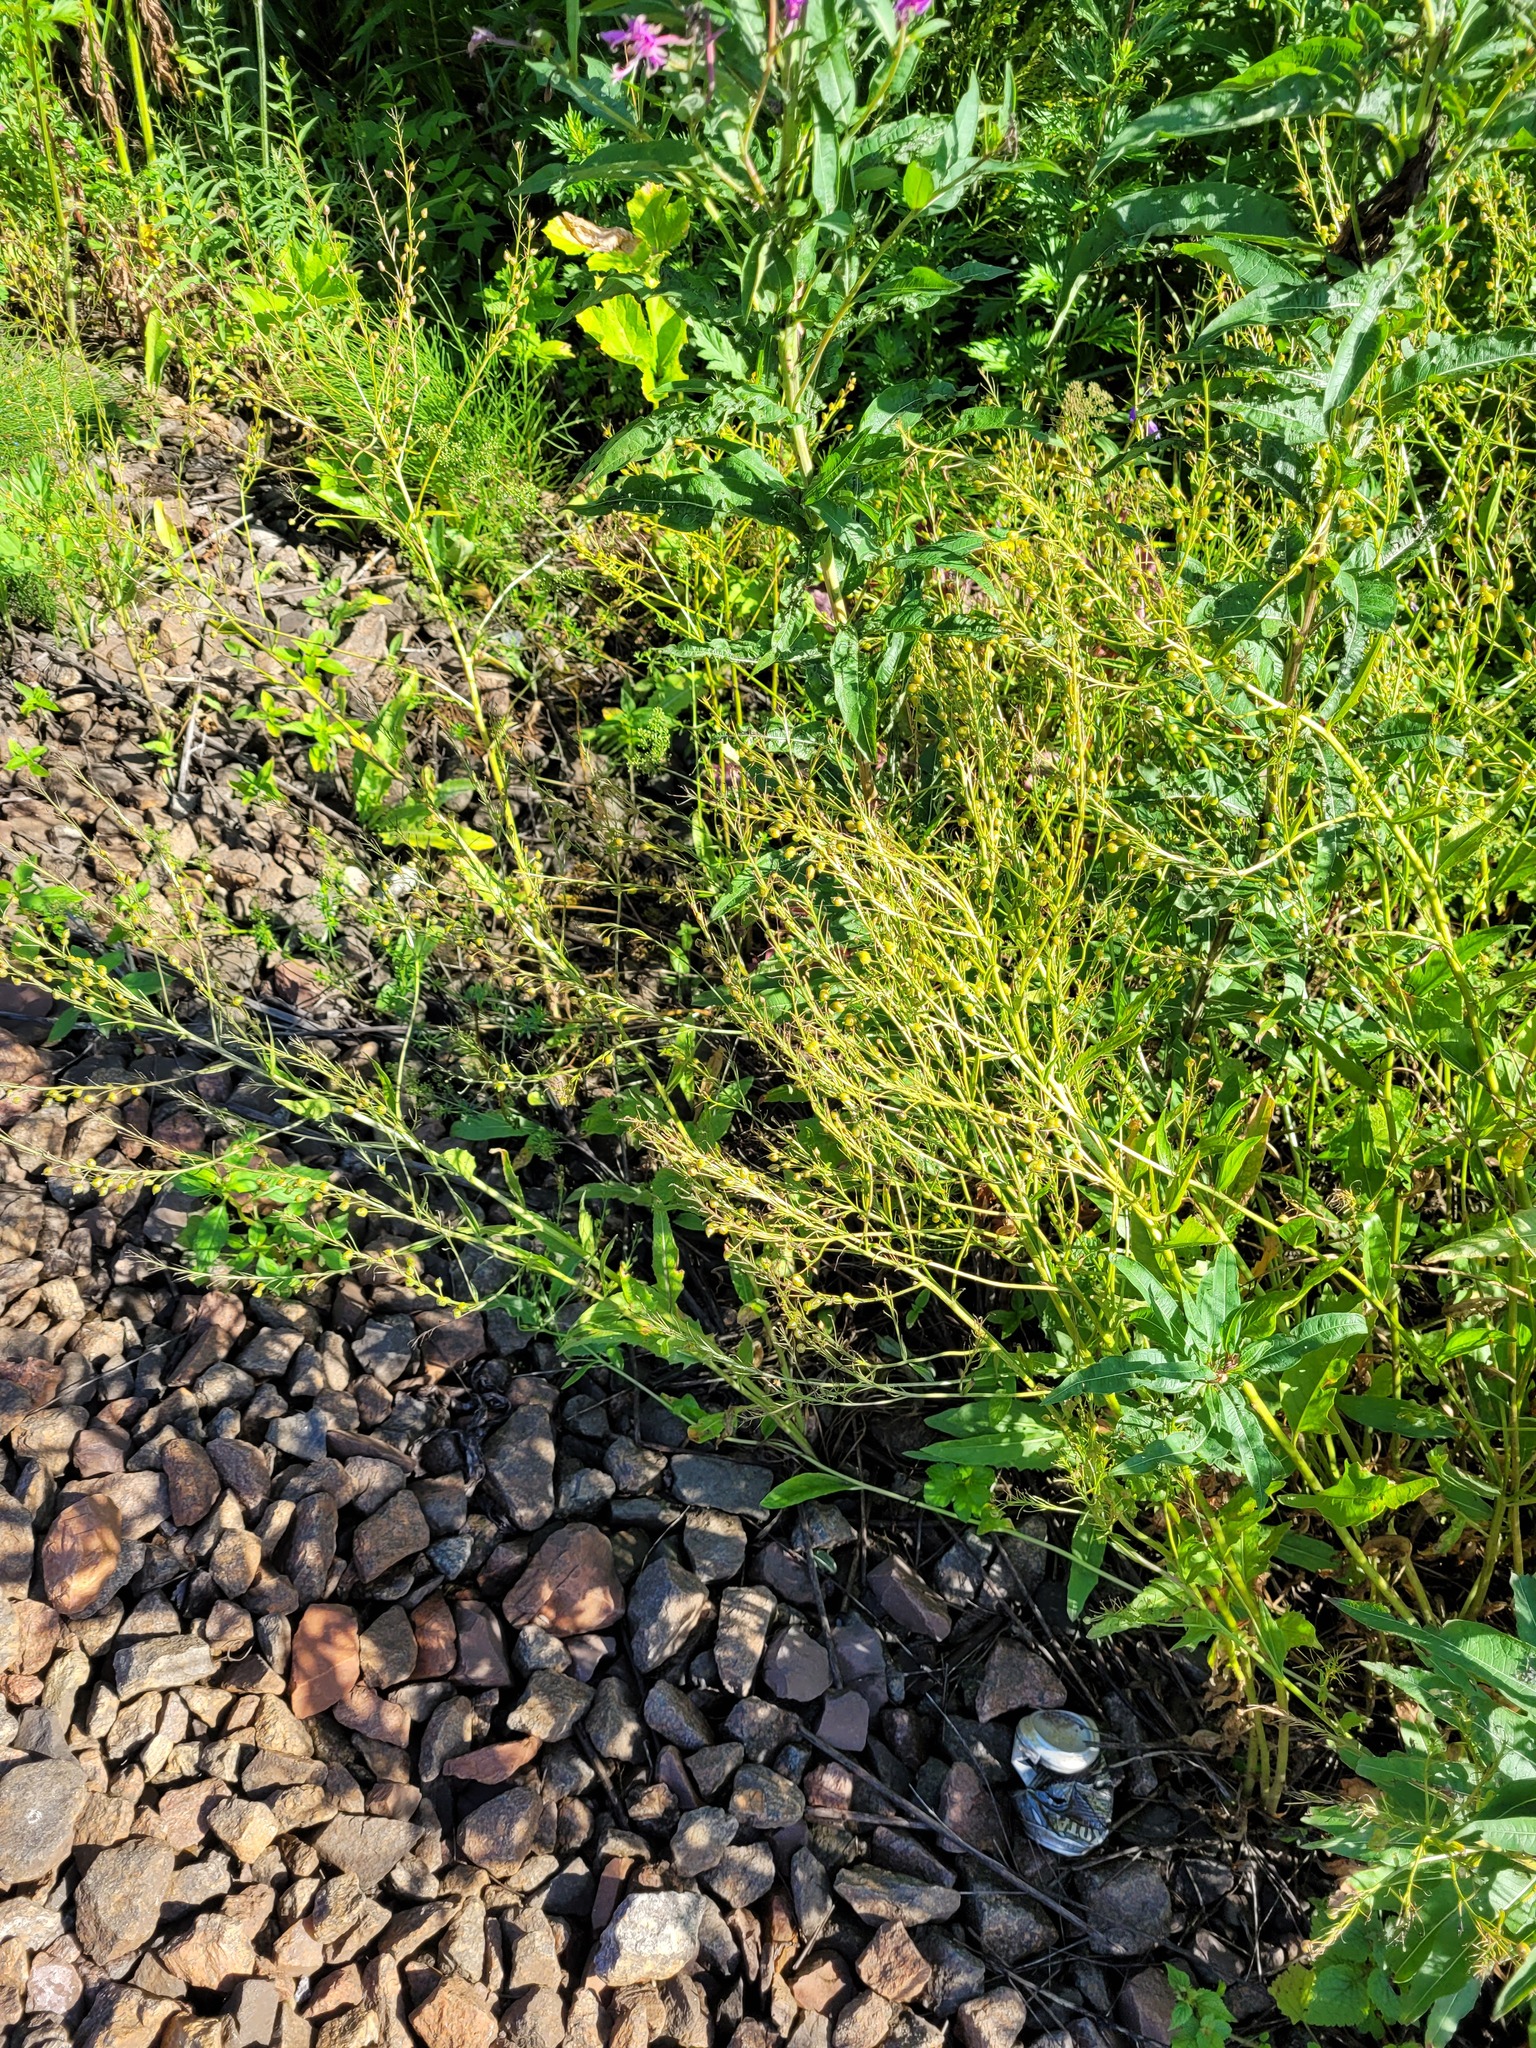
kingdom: Plantae
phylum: Tracheophyta
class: Magnoliopsida
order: Brassicales
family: Brassicaceae
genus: Bunias
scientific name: Bunias orientalis
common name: Warty-cabbage
